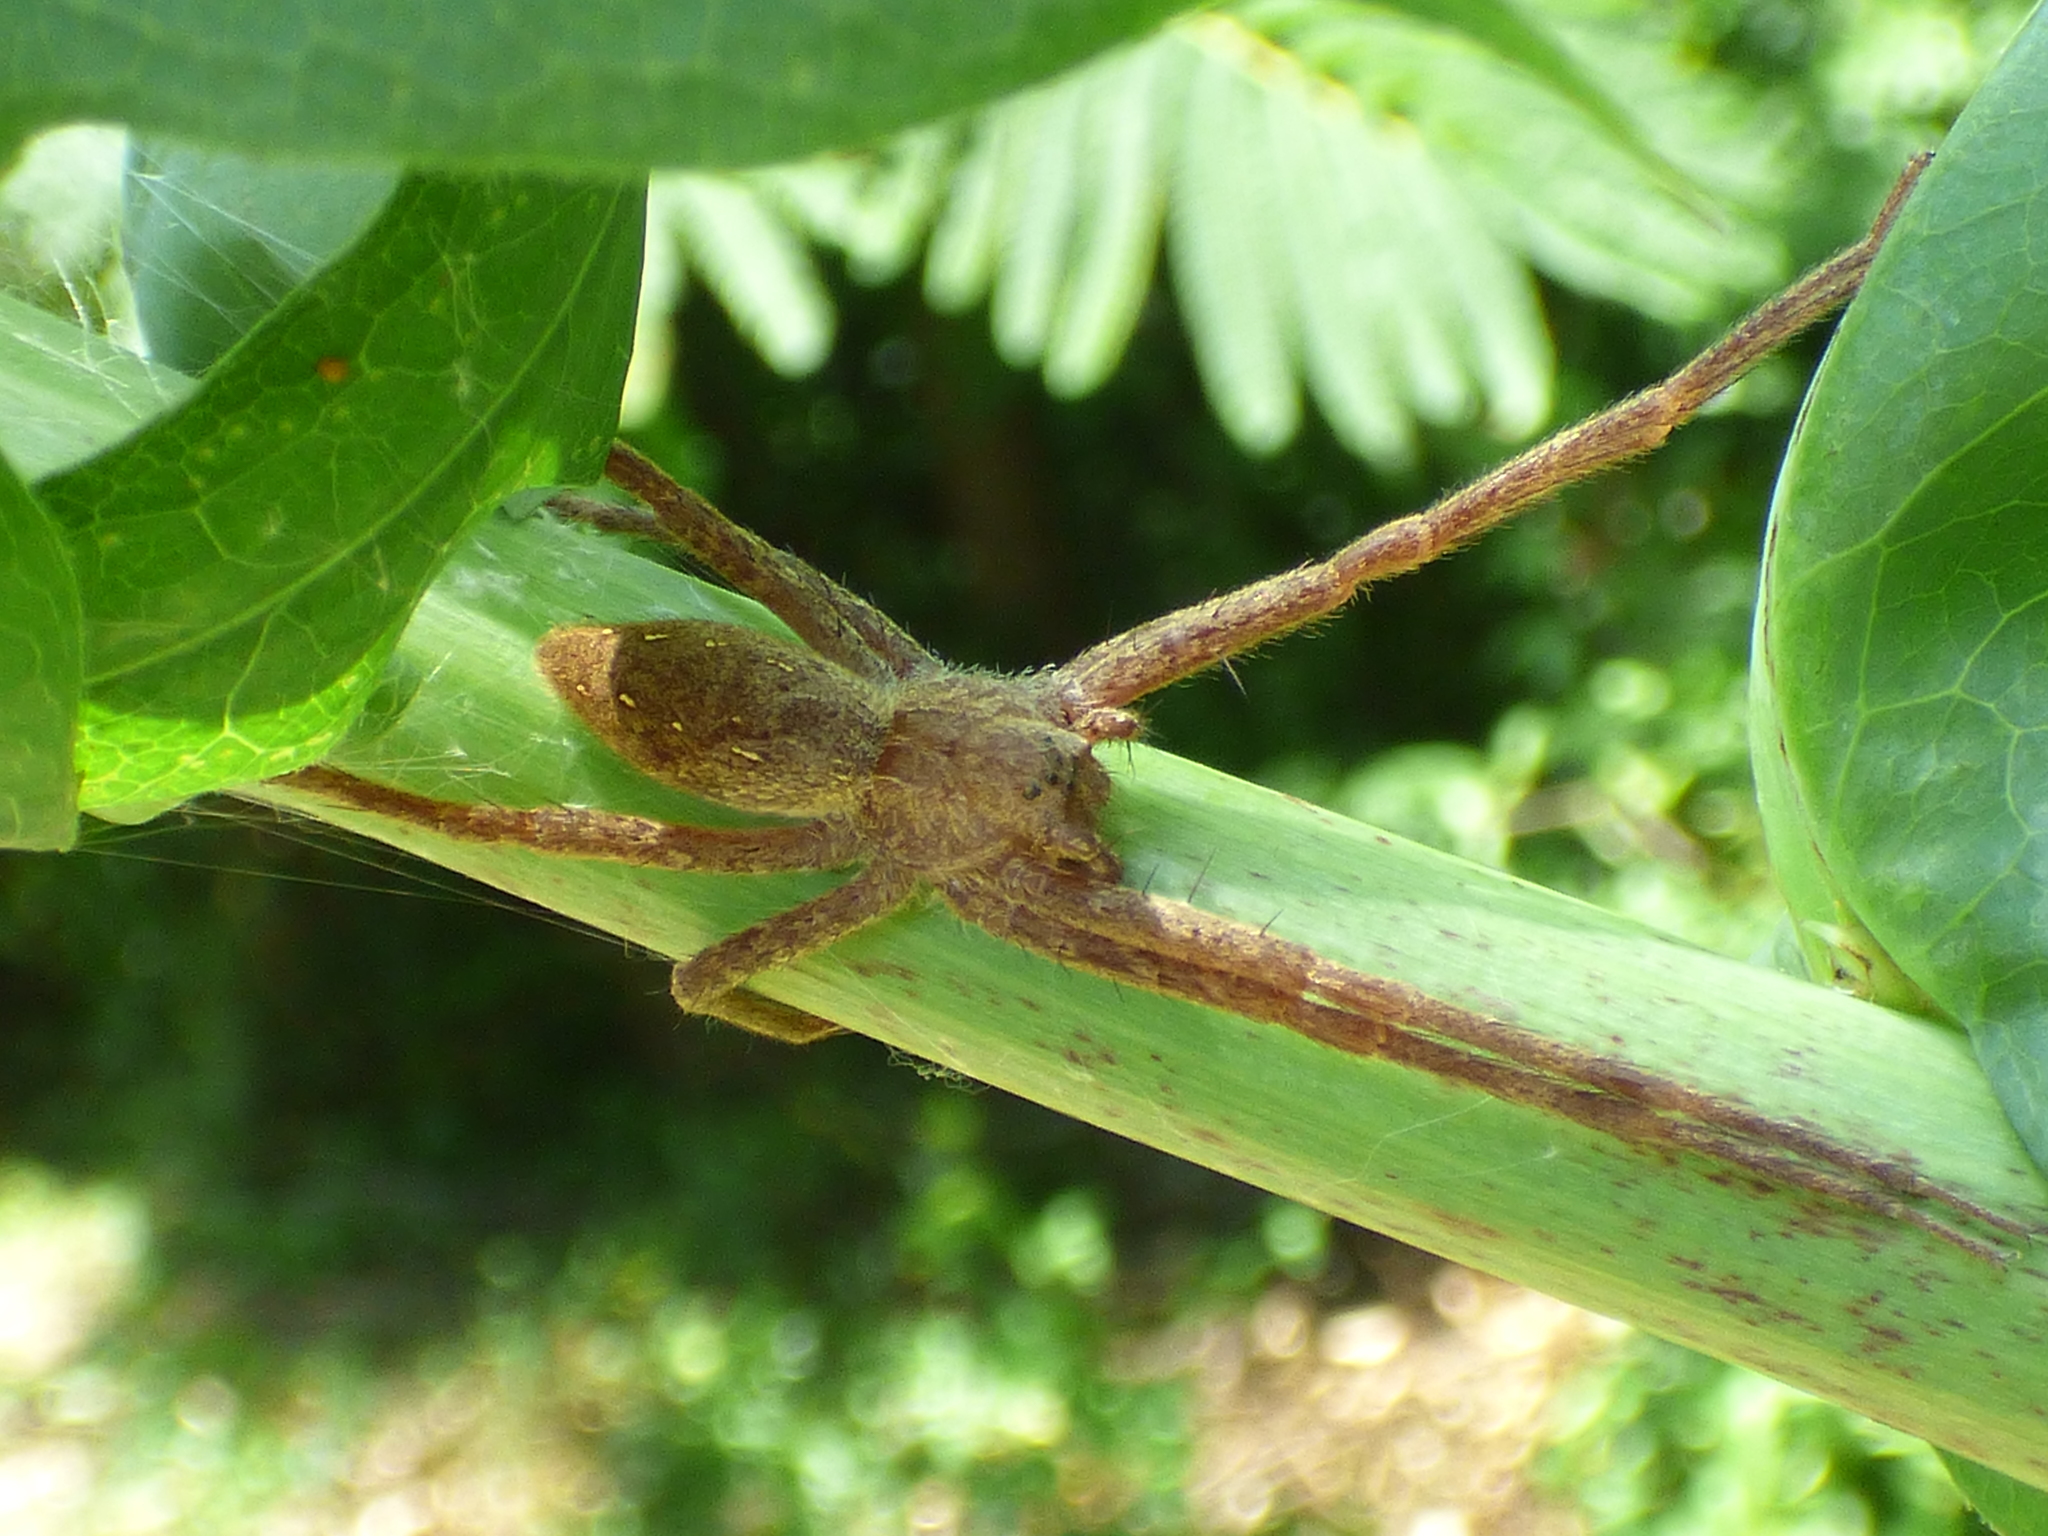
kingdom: Animalia
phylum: Arthropoda
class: Arachnida
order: Araneae
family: Pisauridae
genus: Pisaurina
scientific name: Pisaurina mira
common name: American nursery web spider
